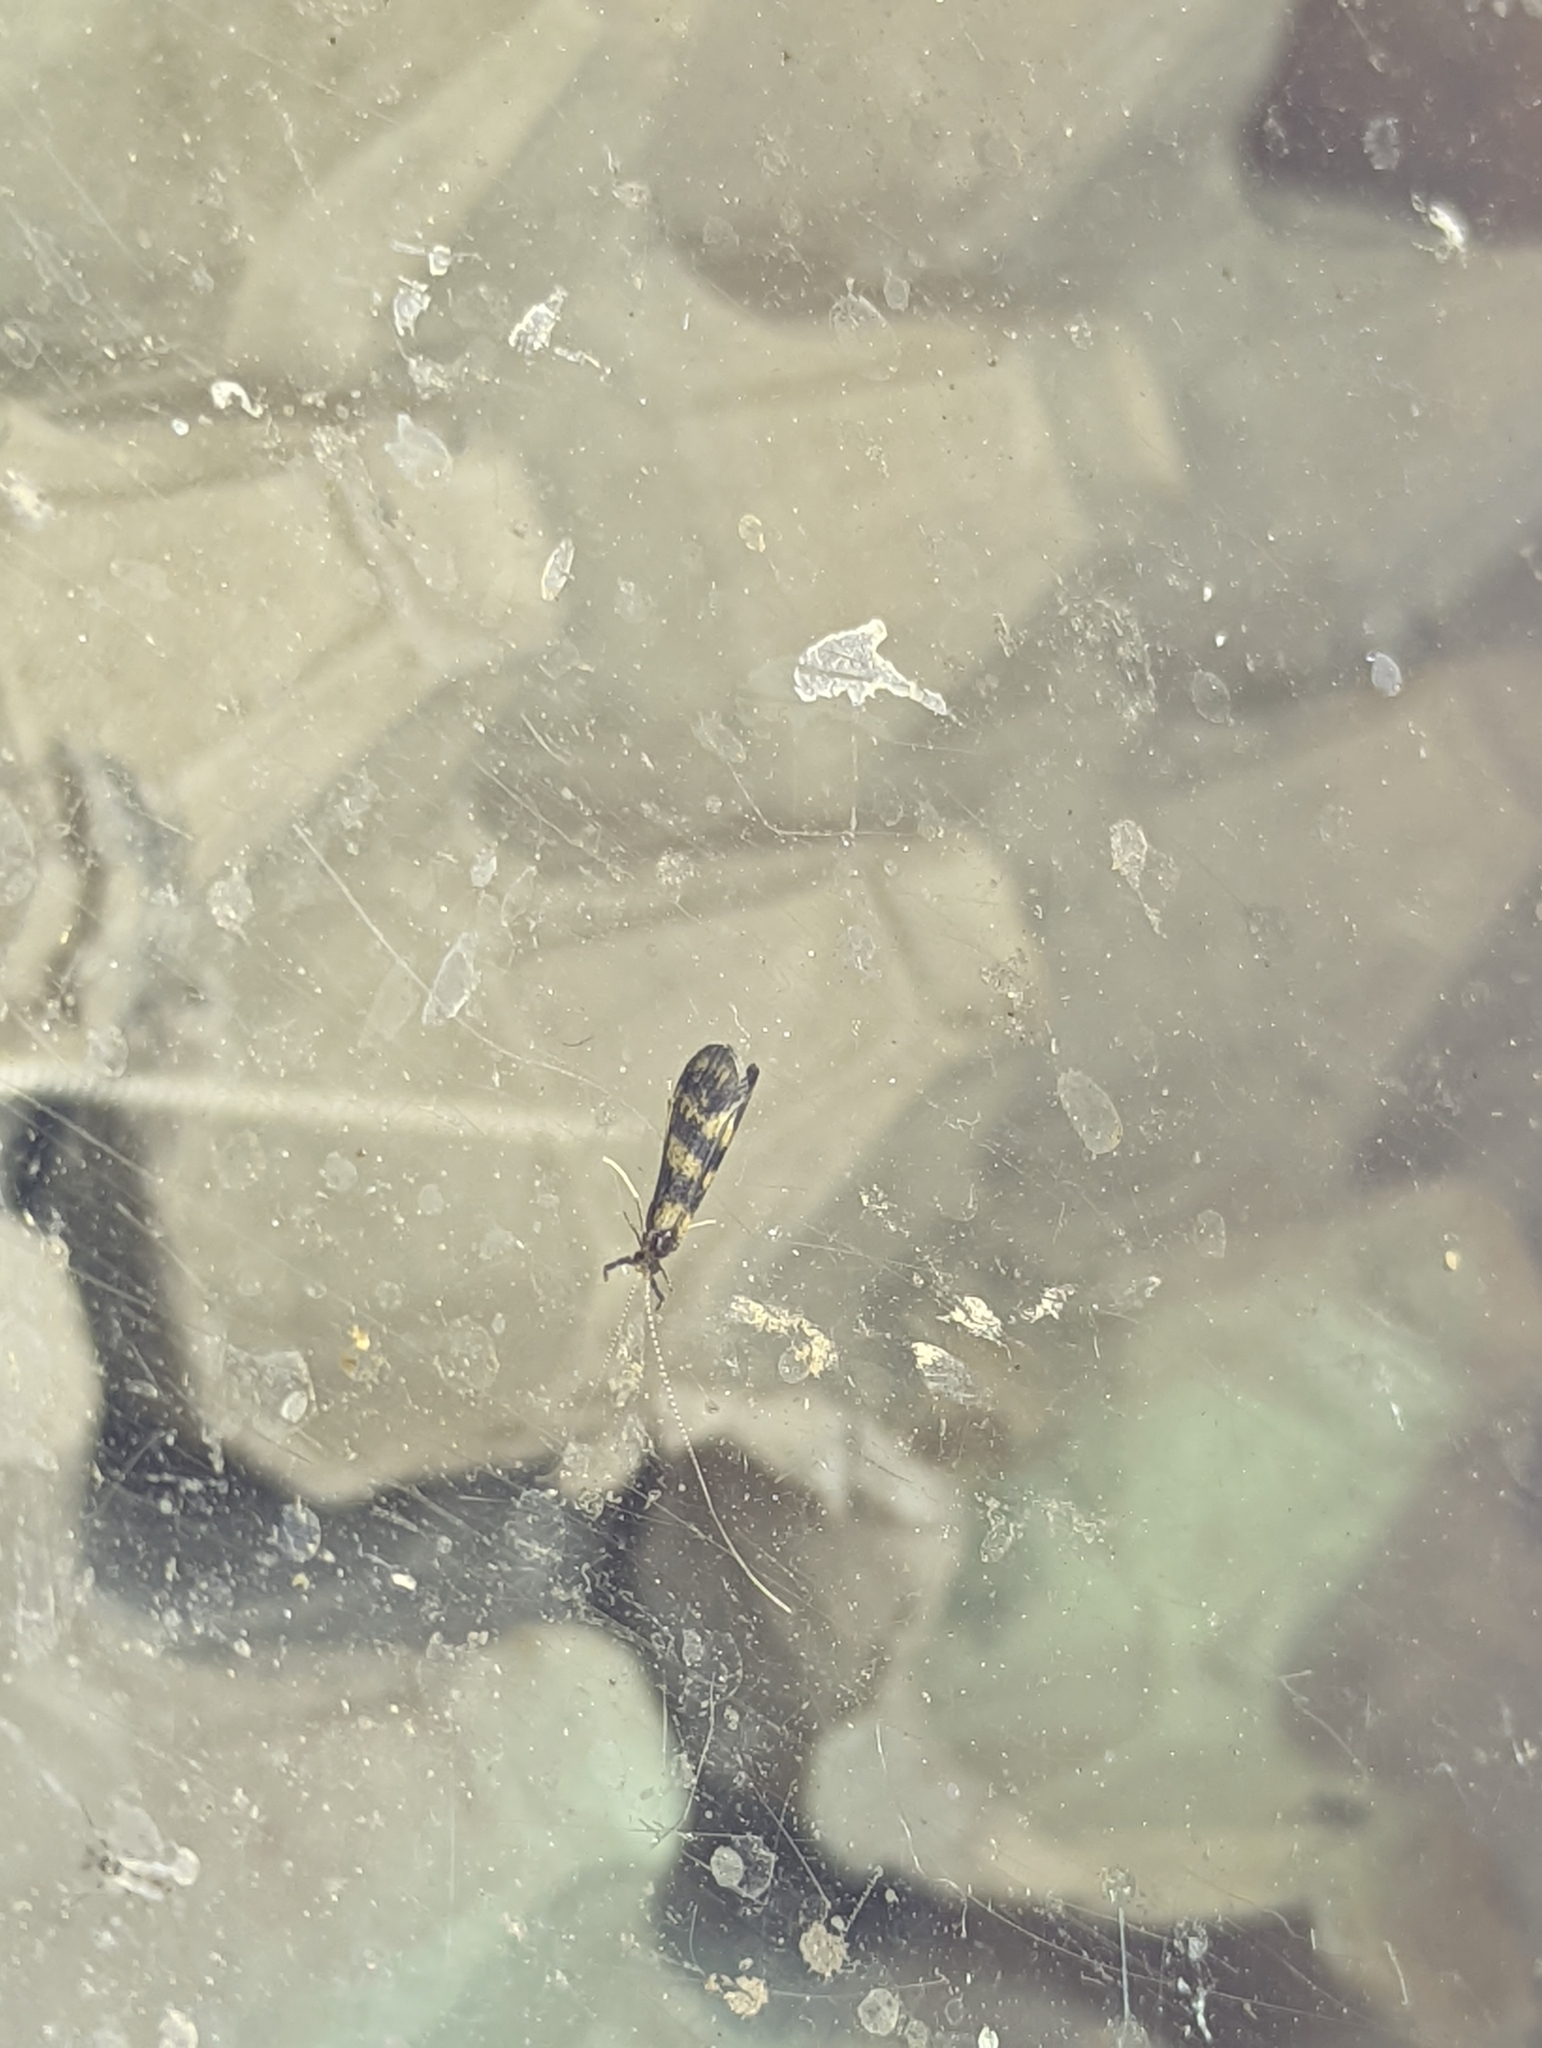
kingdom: Animalia
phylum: Arthropoda
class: Insecta
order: Trichoptera
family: Leptoceridae
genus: Mystacides
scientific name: Mystacides longicornis
